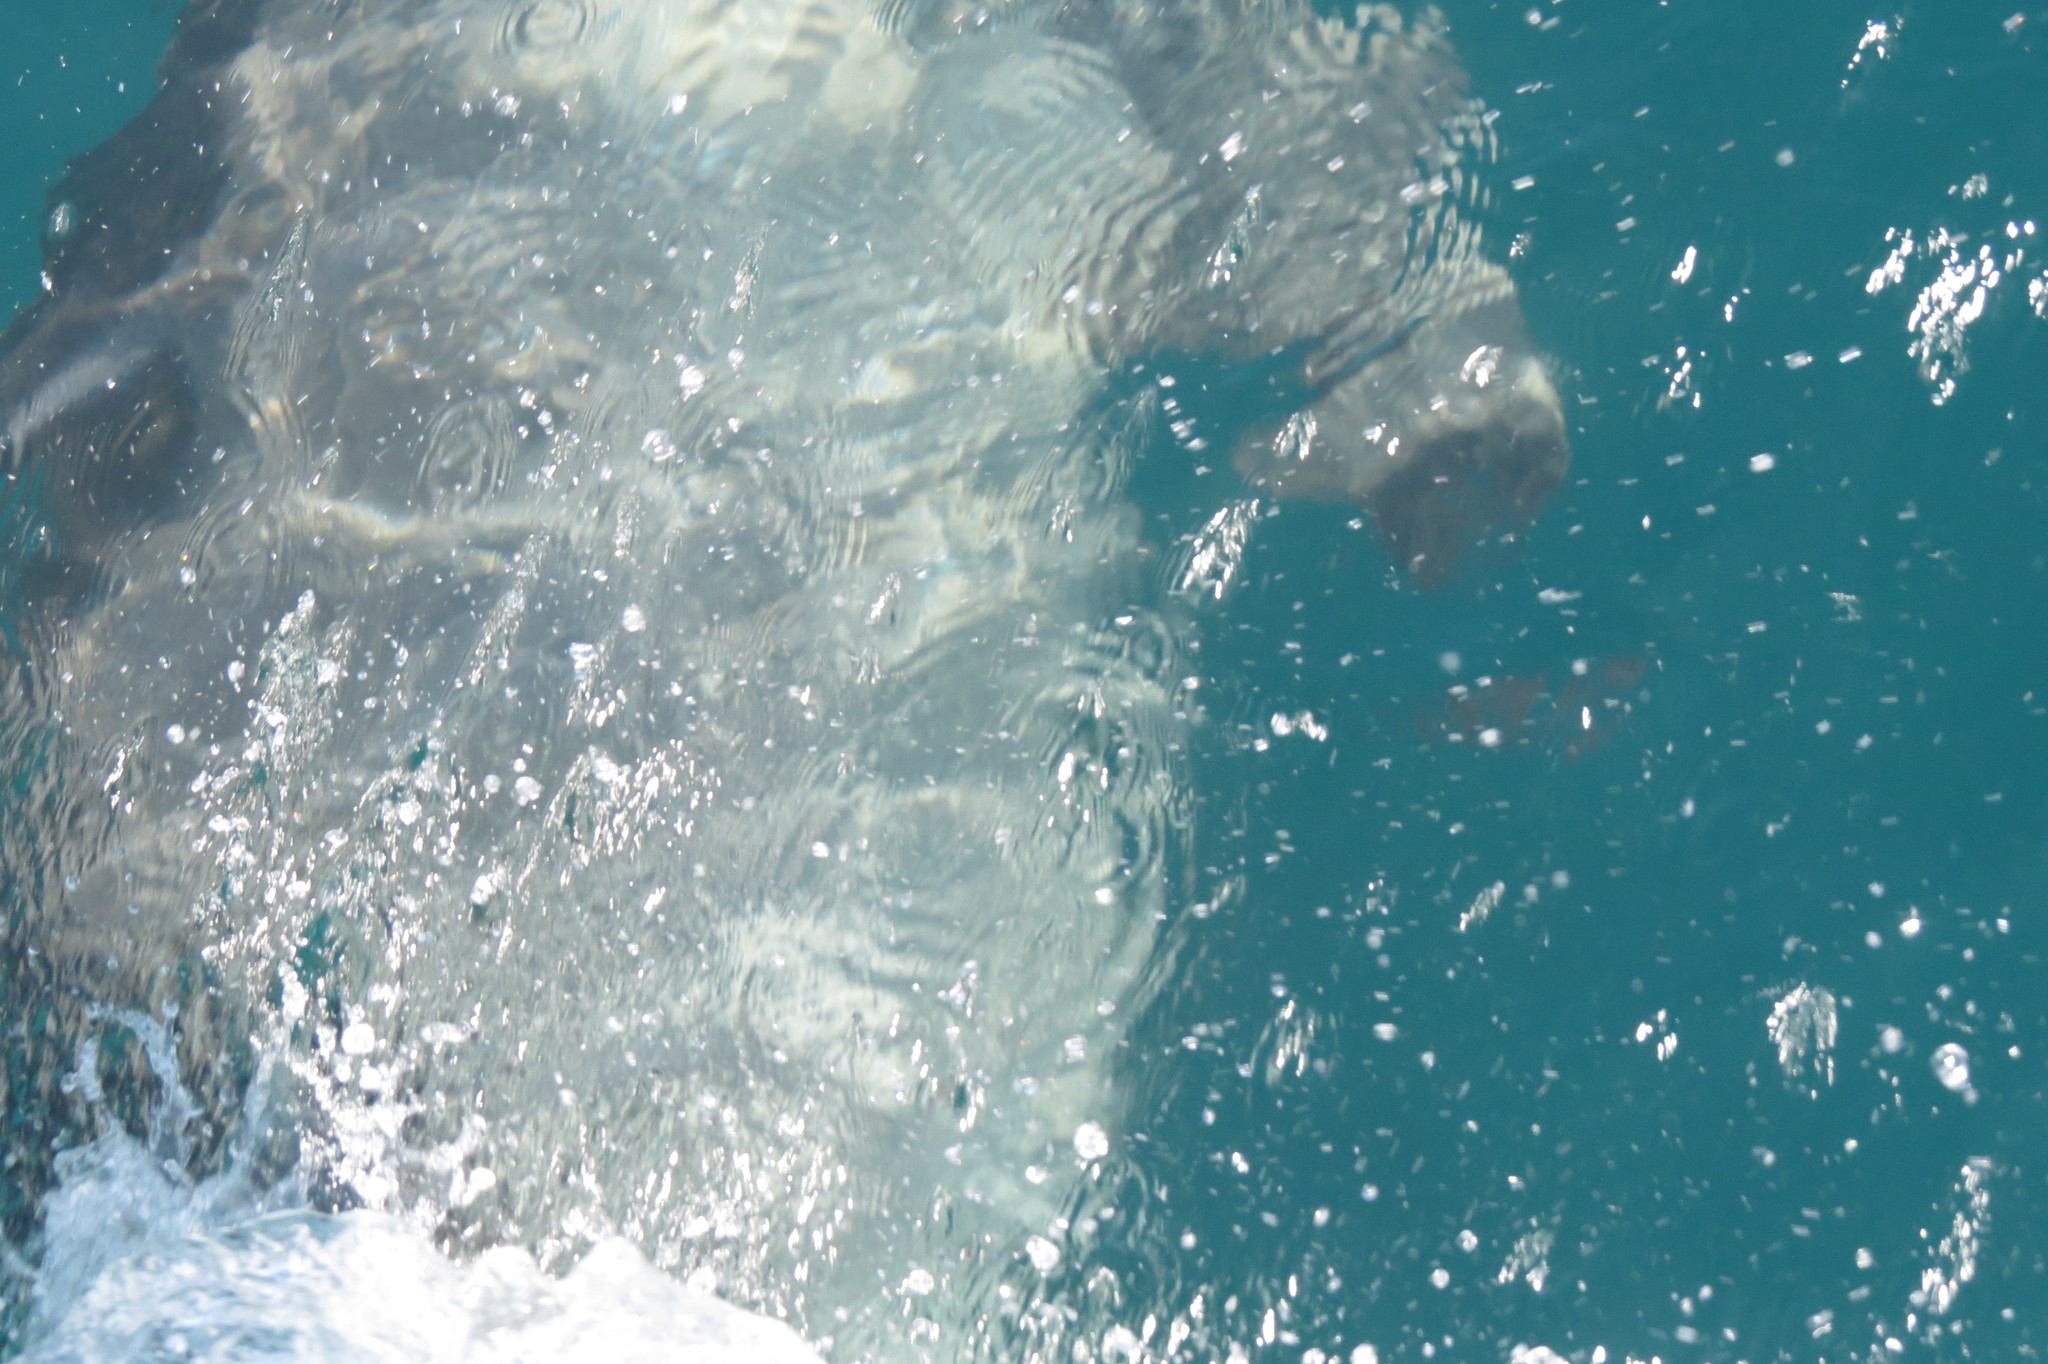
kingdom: Animalia
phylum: Chordata
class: Mammalia
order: Cetacea
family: Delphinidae
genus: Tursiops
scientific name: Tursiops truncatus
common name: Bottlenose dolphin
